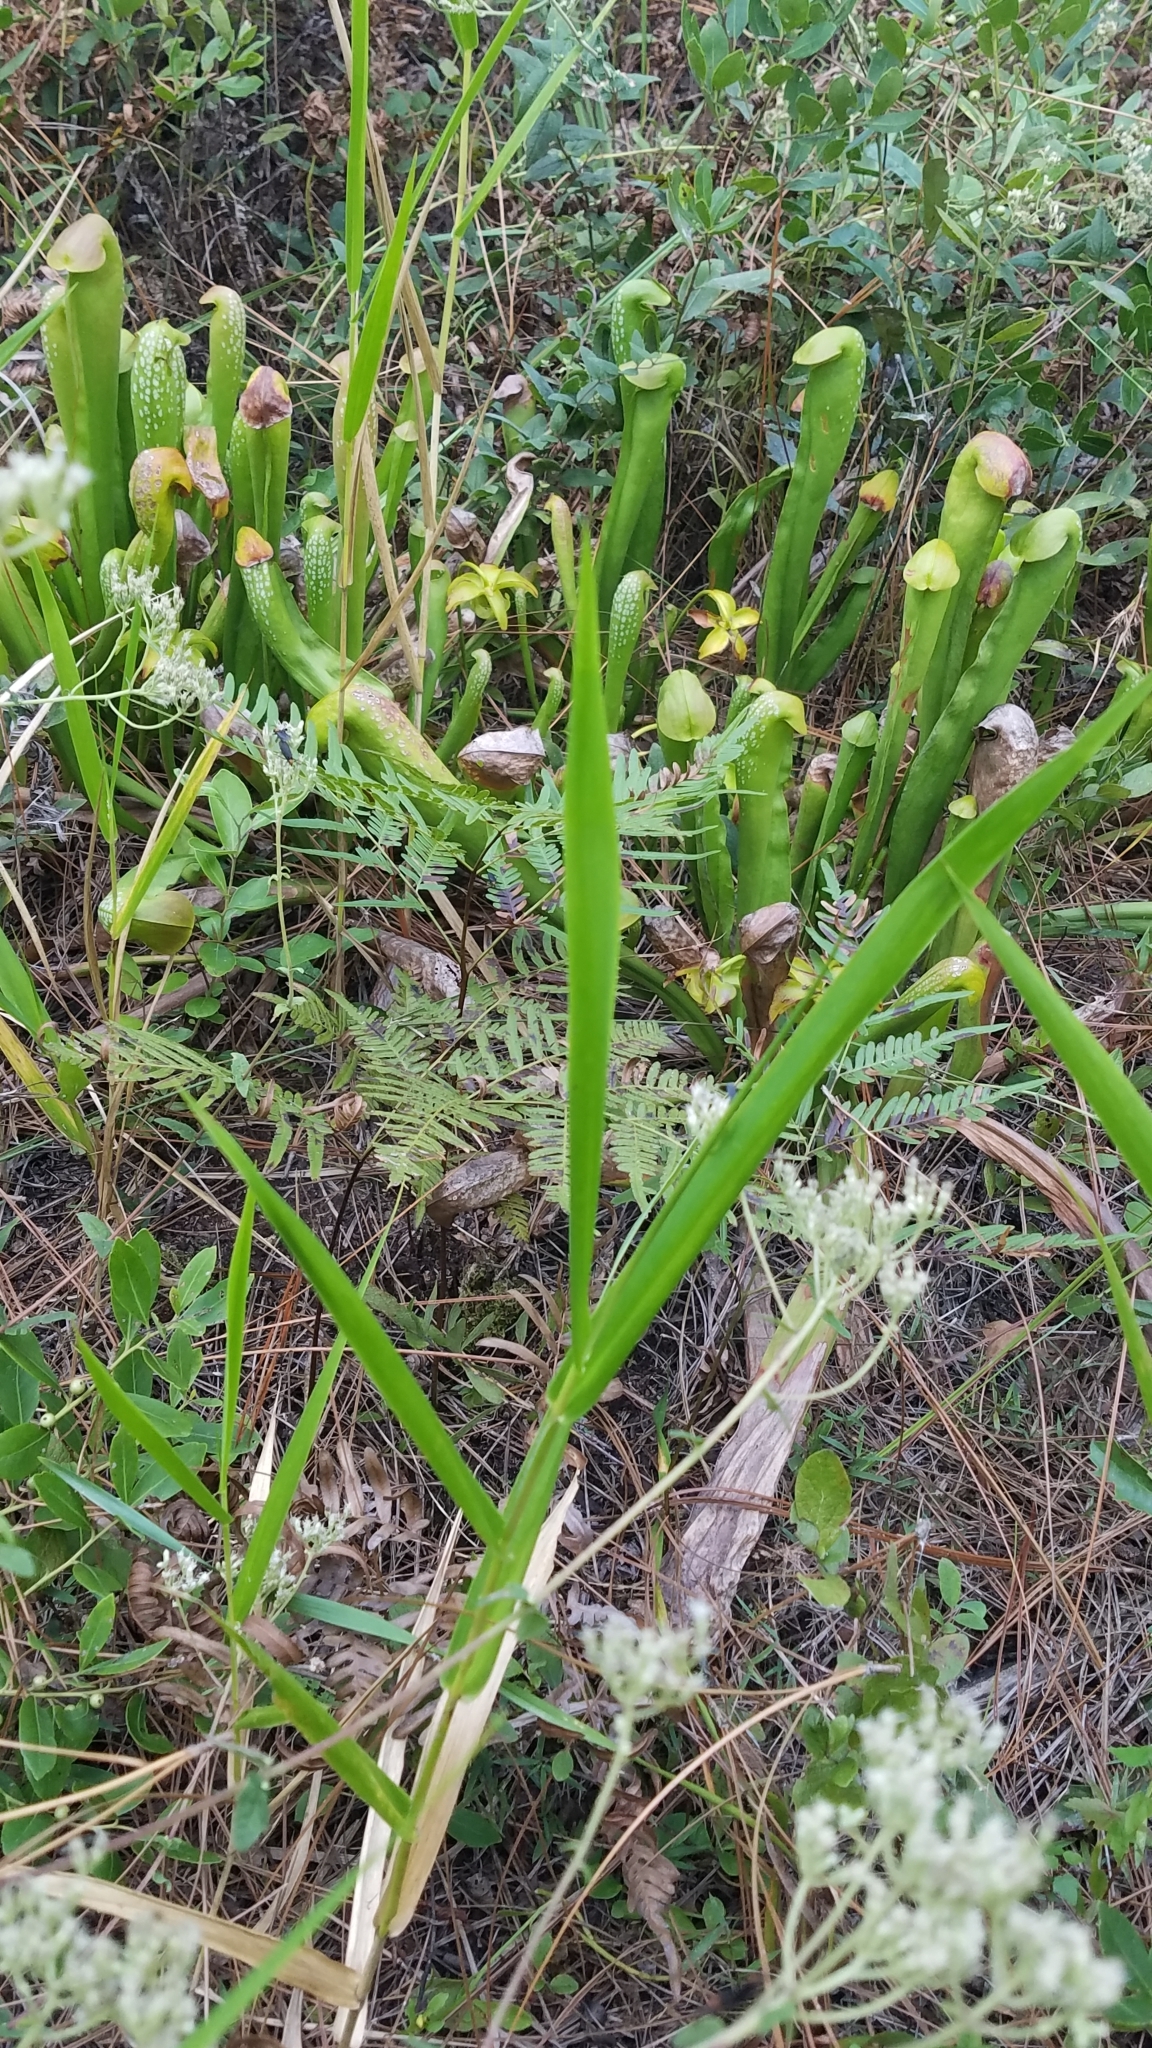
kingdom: Plantae
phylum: Tracheophyta
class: Magnoliopsida
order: Ericales
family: Sarraceniaceae
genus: Sarracenia
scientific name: Sarracenia minor
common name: Rainhat-trumpet
